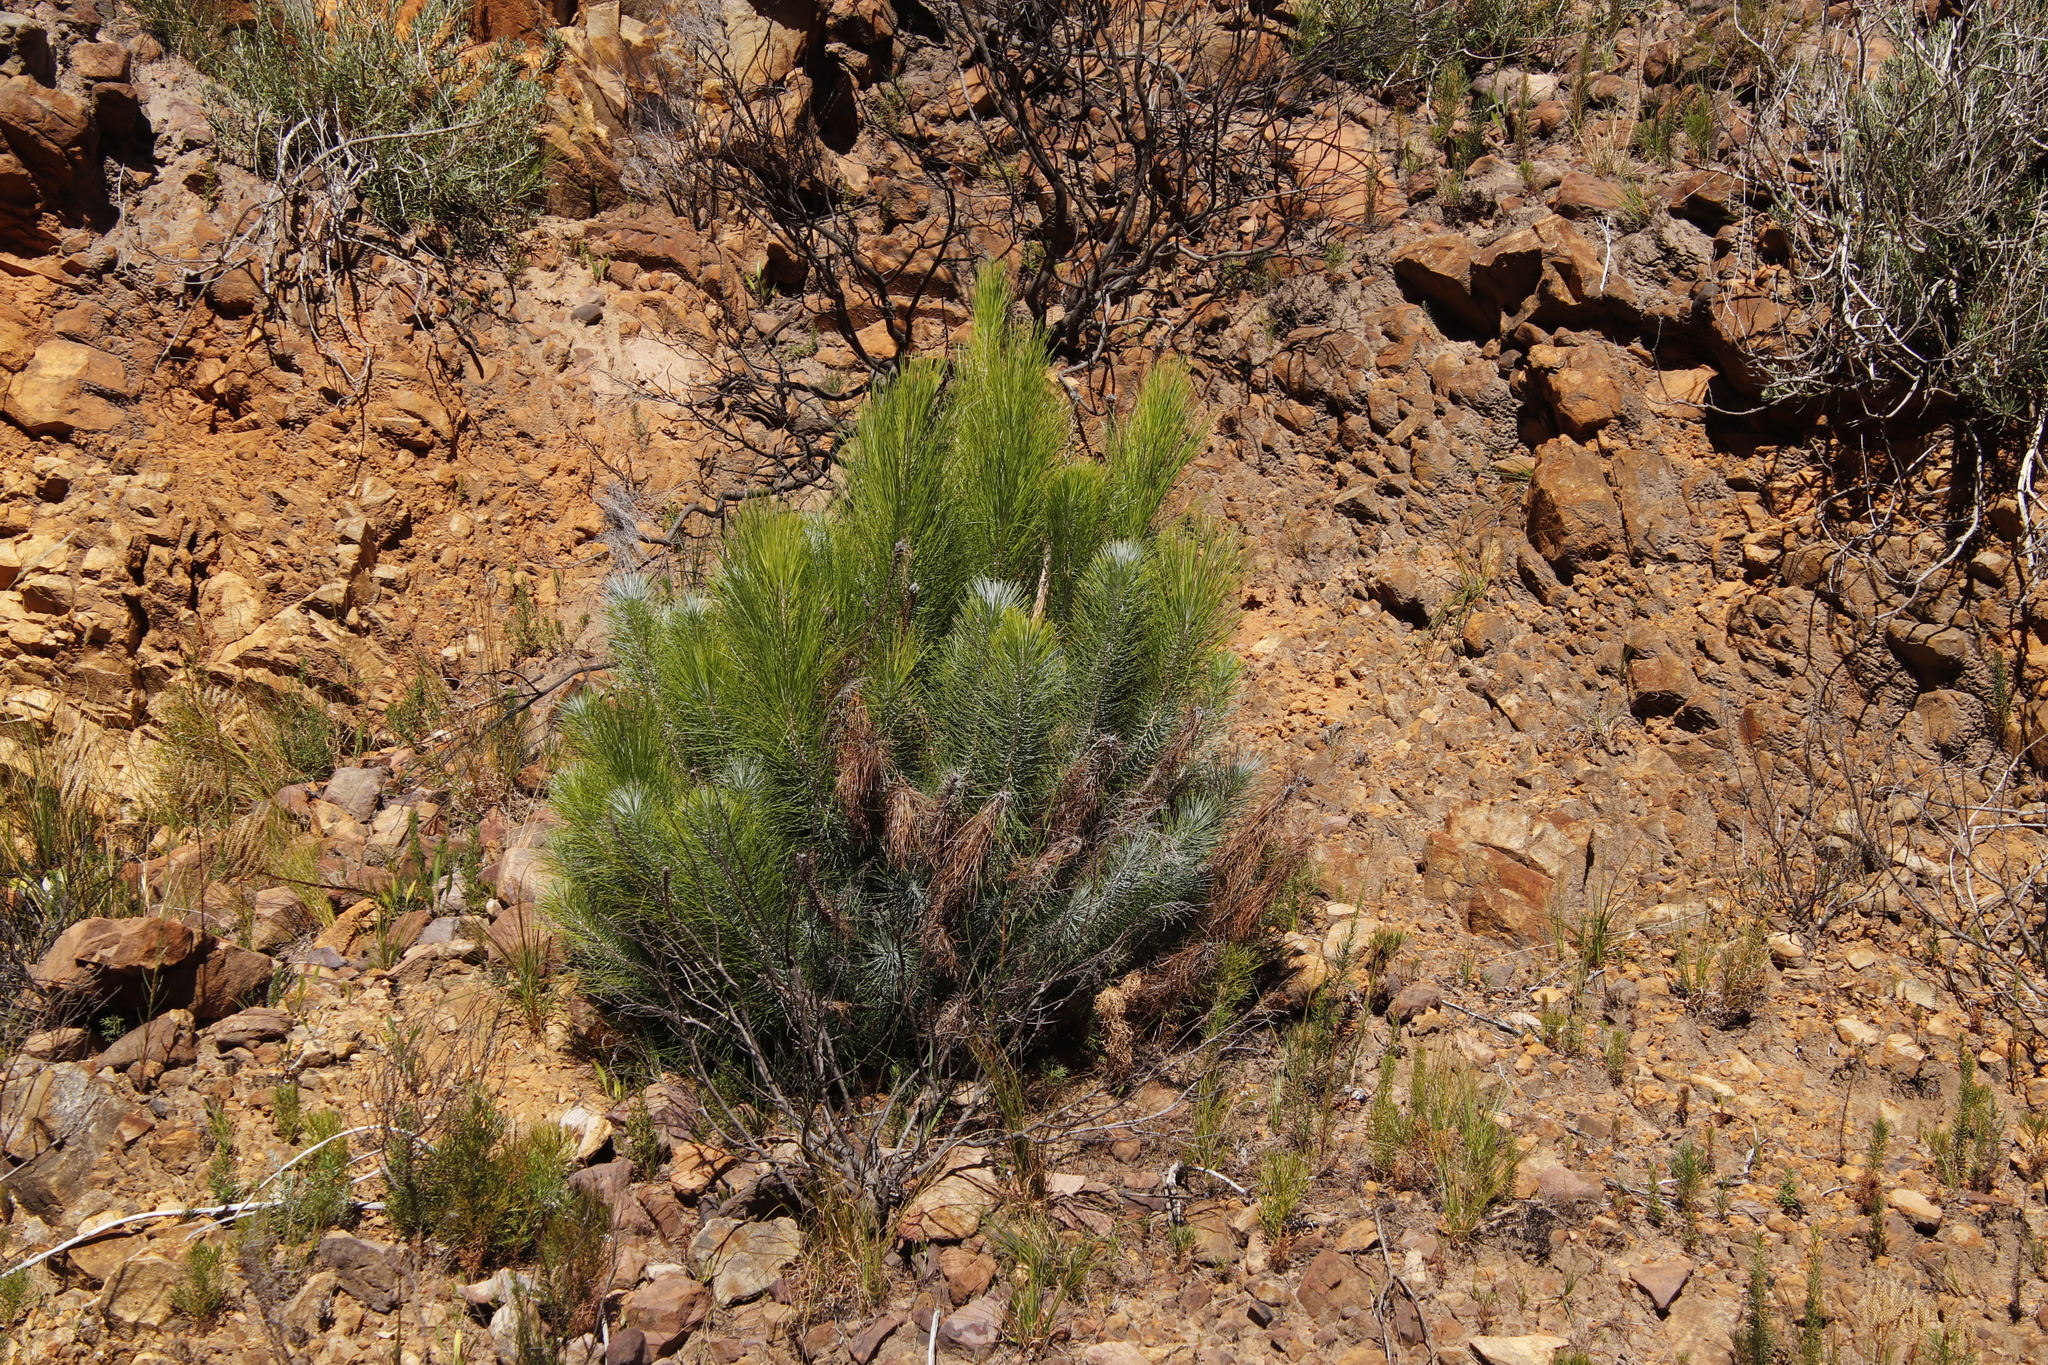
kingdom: Plantae
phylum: Tracheophyta
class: Pinopsida
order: Pinales
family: Pinaceae
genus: Pinus
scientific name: Pinus canariensis
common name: Canary islands pine
